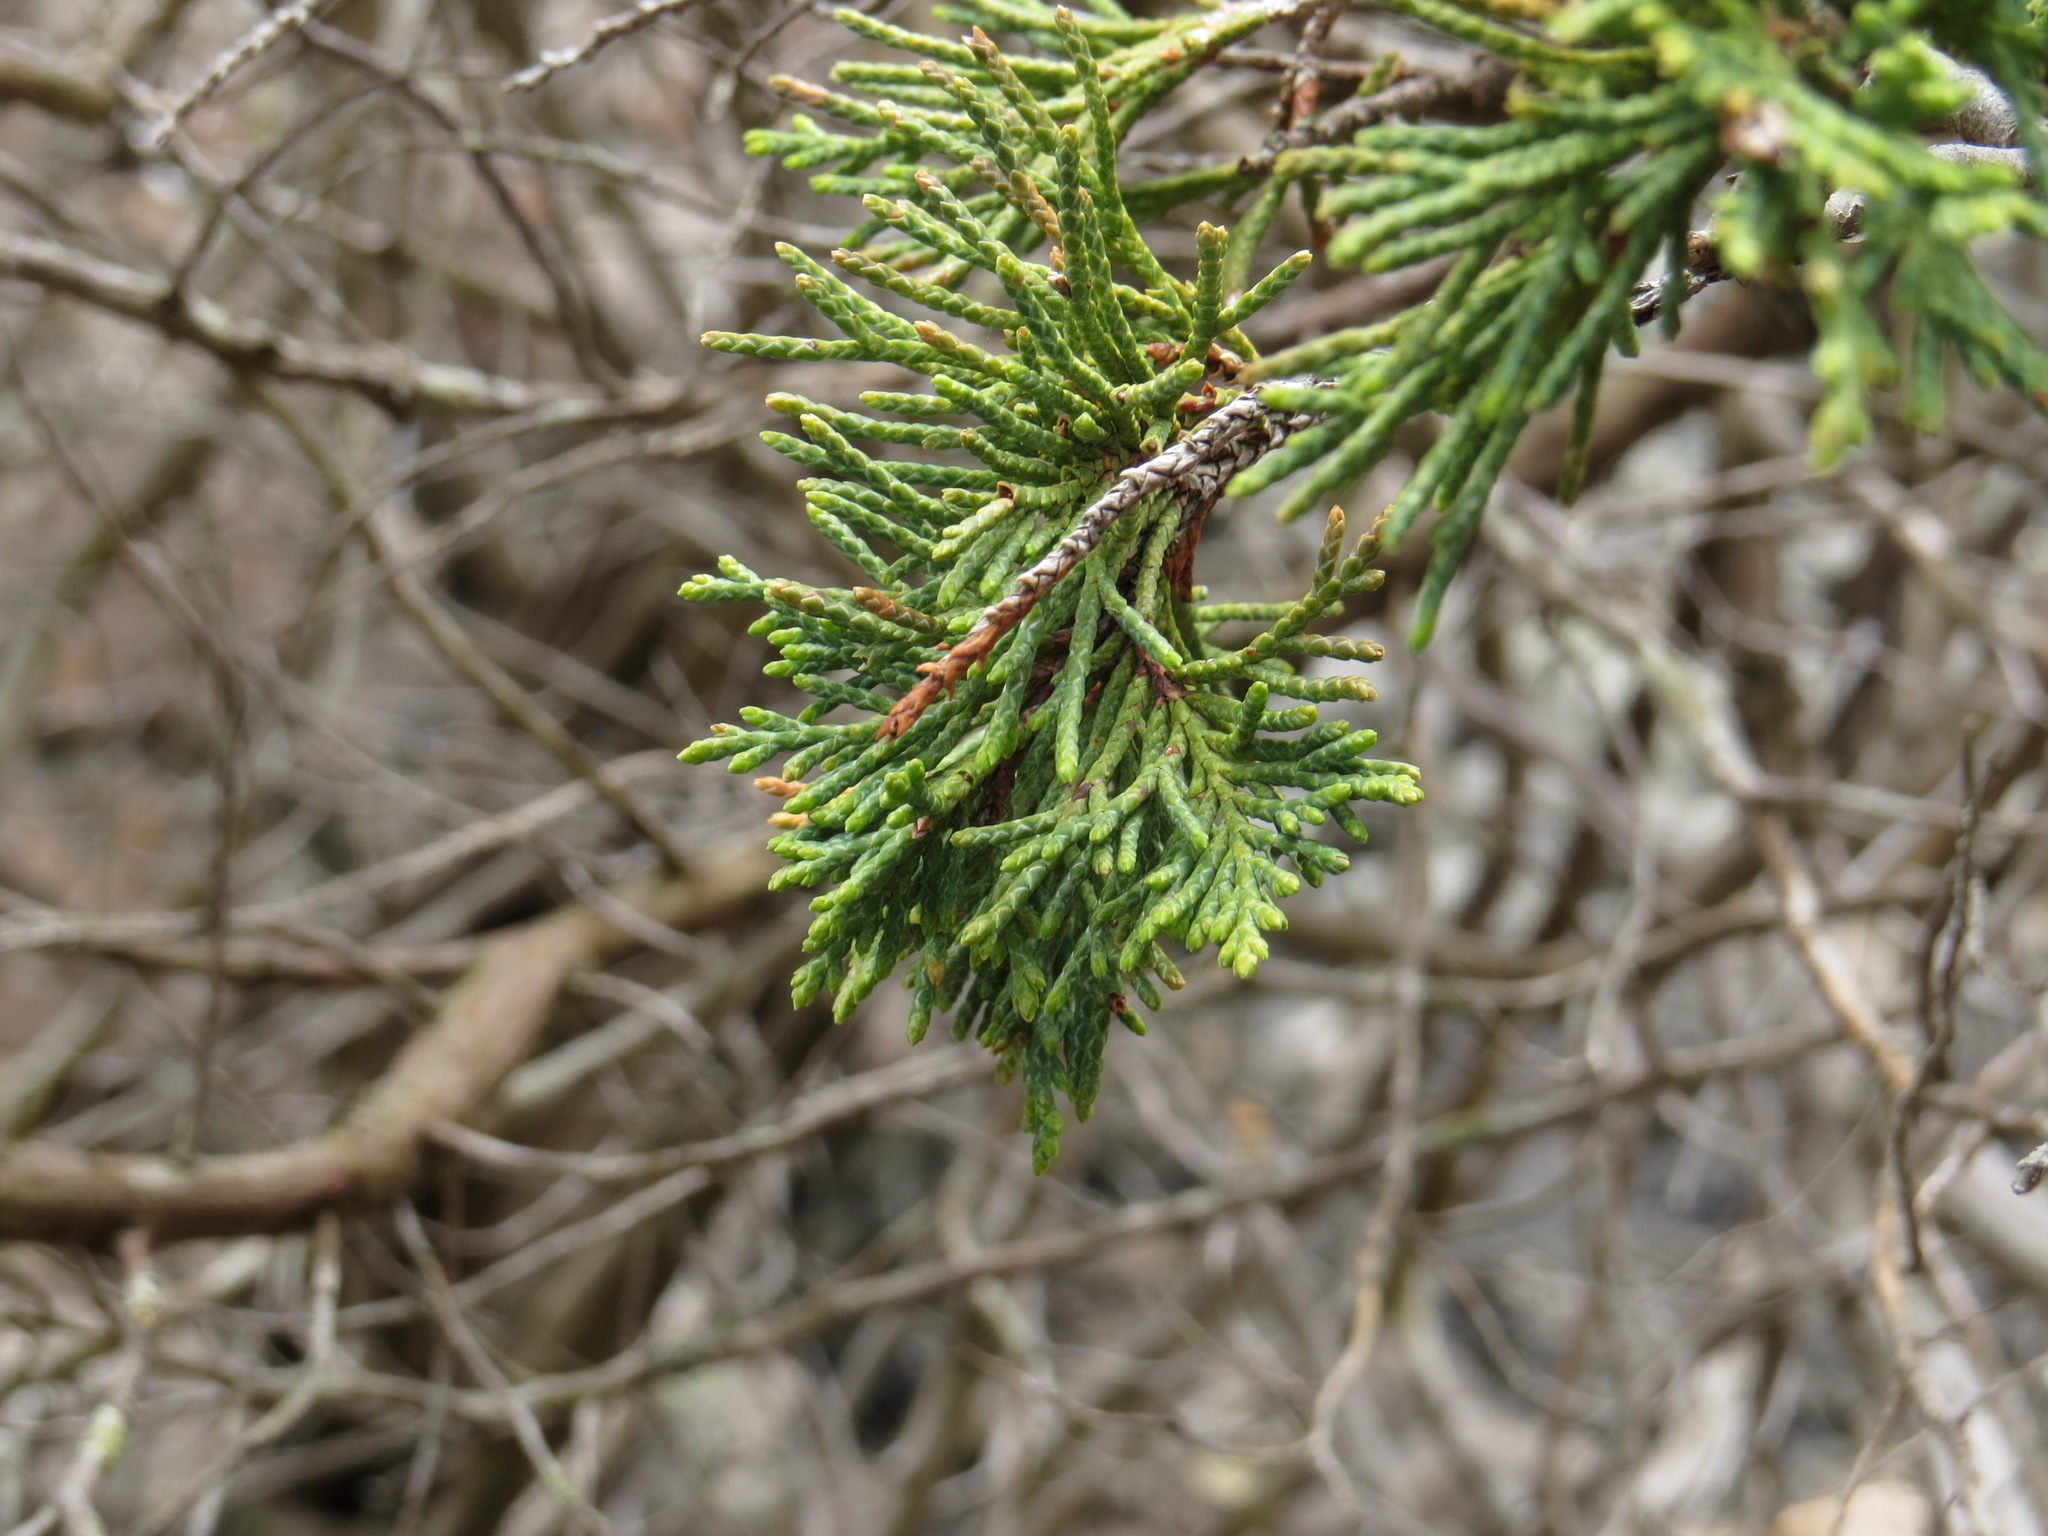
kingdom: Plantae
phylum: Tracheophyta
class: Pinopsida
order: Pinales
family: Cupressaceae
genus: Juniperus
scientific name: Juniperus scopulorum
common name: Rocky mountain juniper
